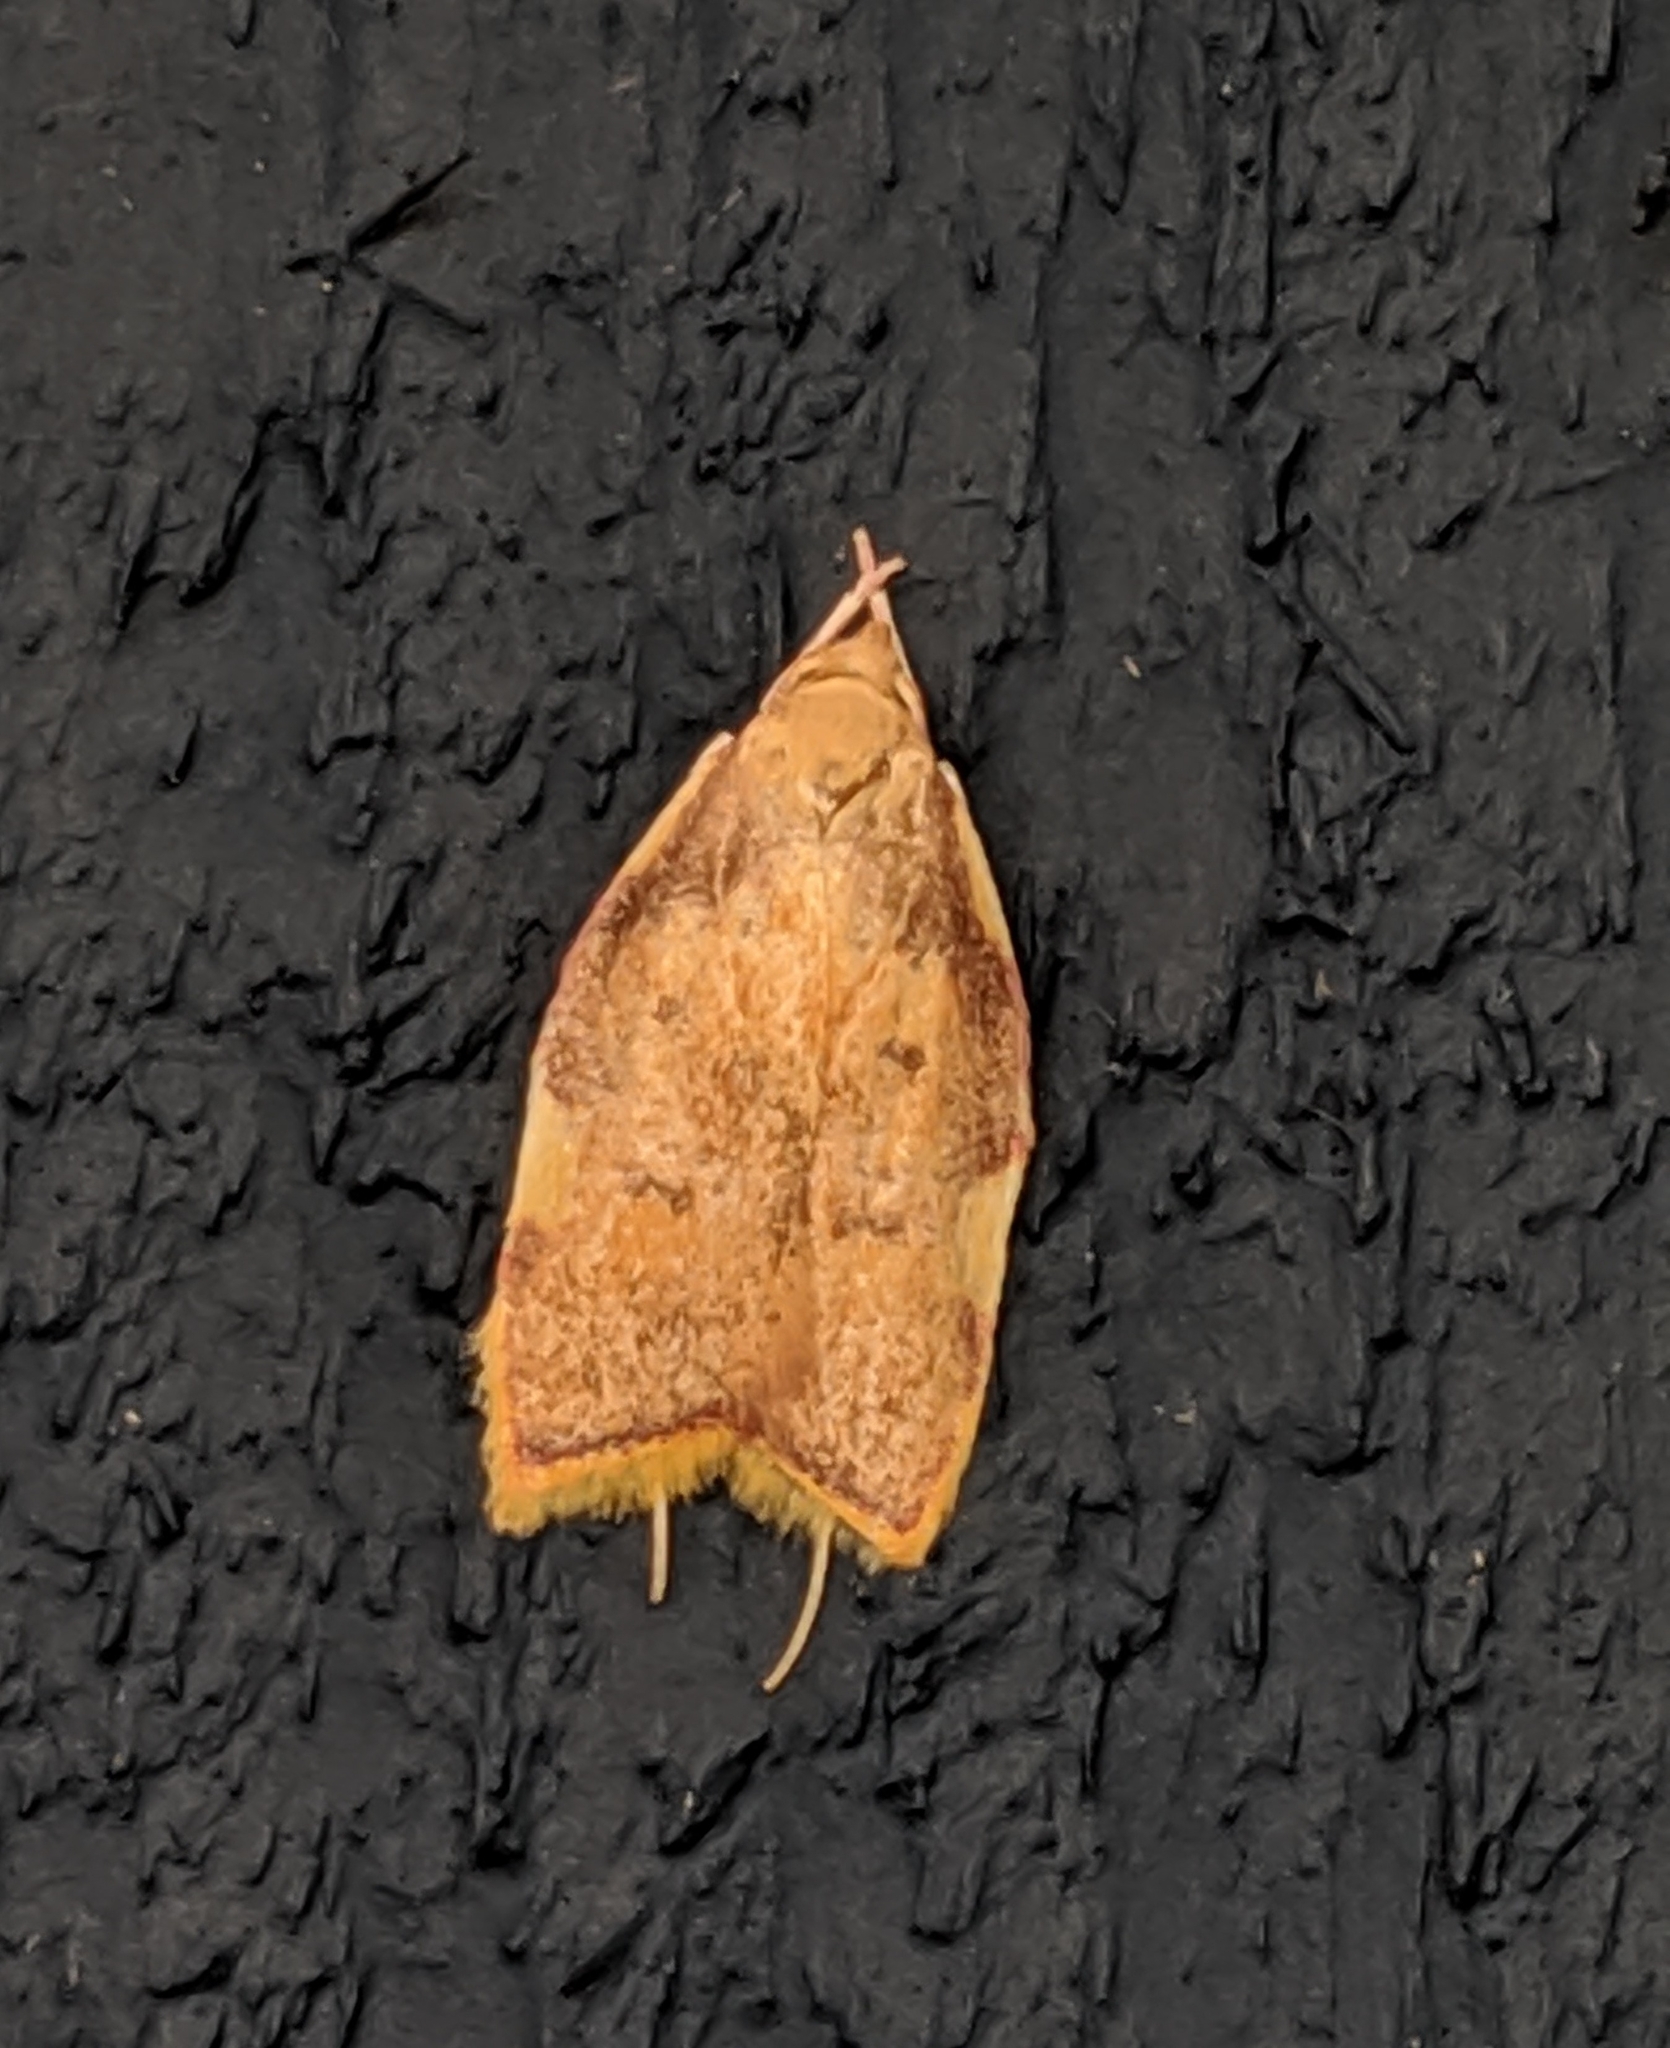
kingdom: Animalia
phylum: Arthropoda
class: Insecta
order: Lepidoptera
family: Peleopodidae
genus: Carcina
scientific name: Carcina quercana
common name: Moth
